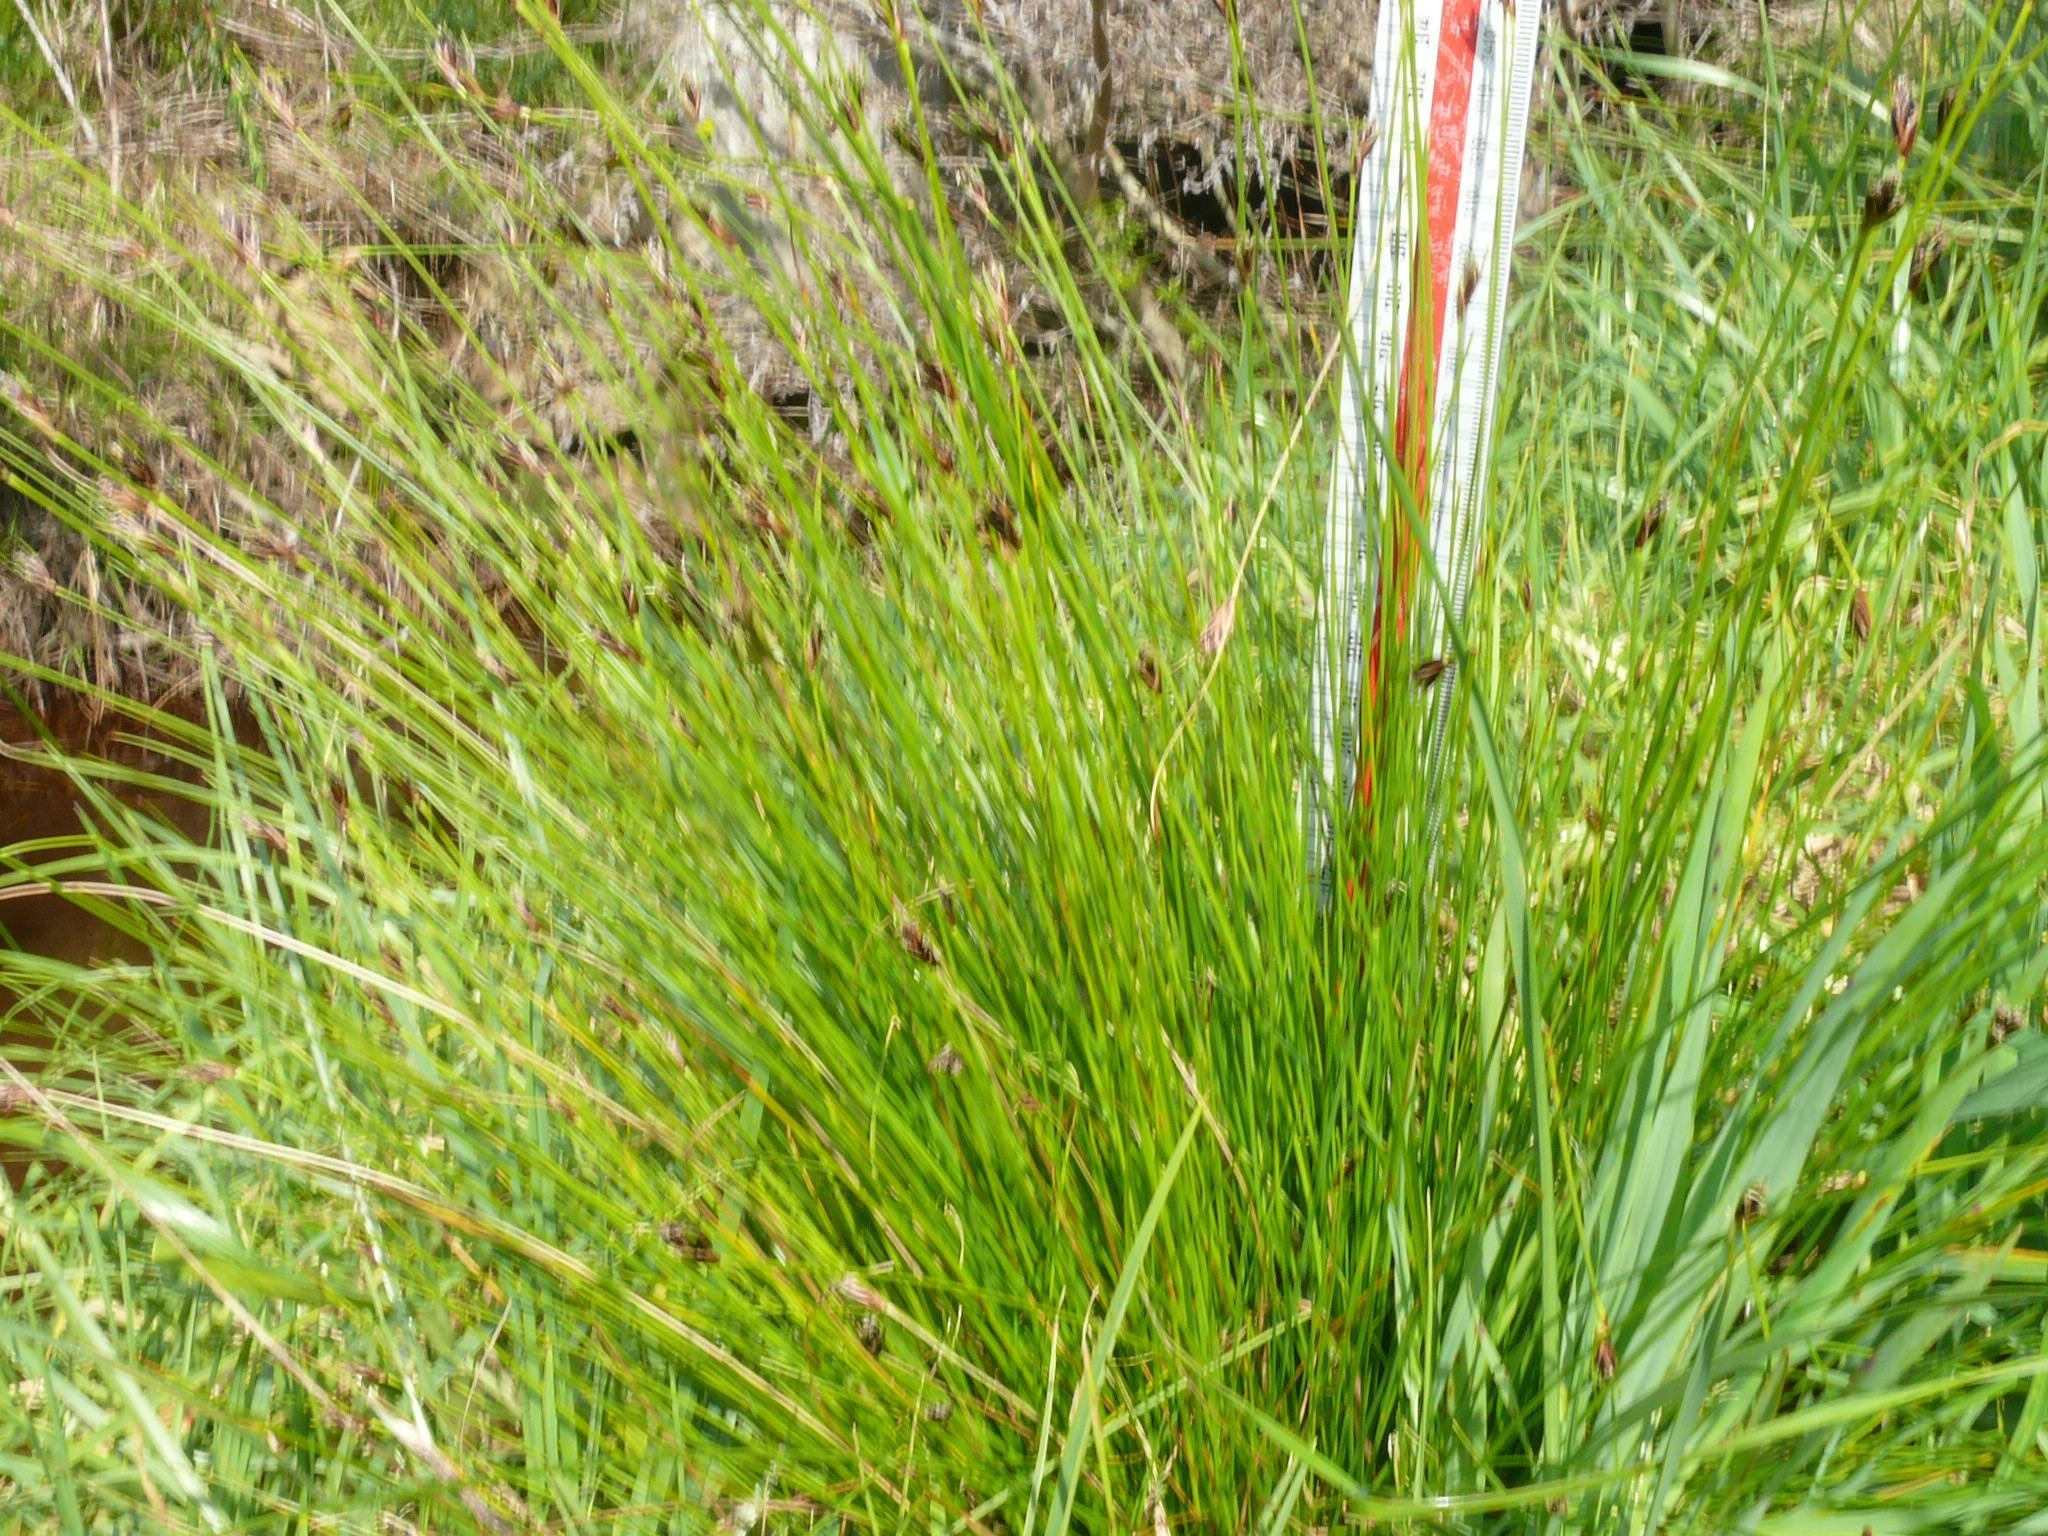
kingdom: Plantae
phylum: Tracheophyta
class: Liliopsida
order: Poales
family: Cyperaceae
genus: Ficinia
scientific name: Ficinia fastigiata
